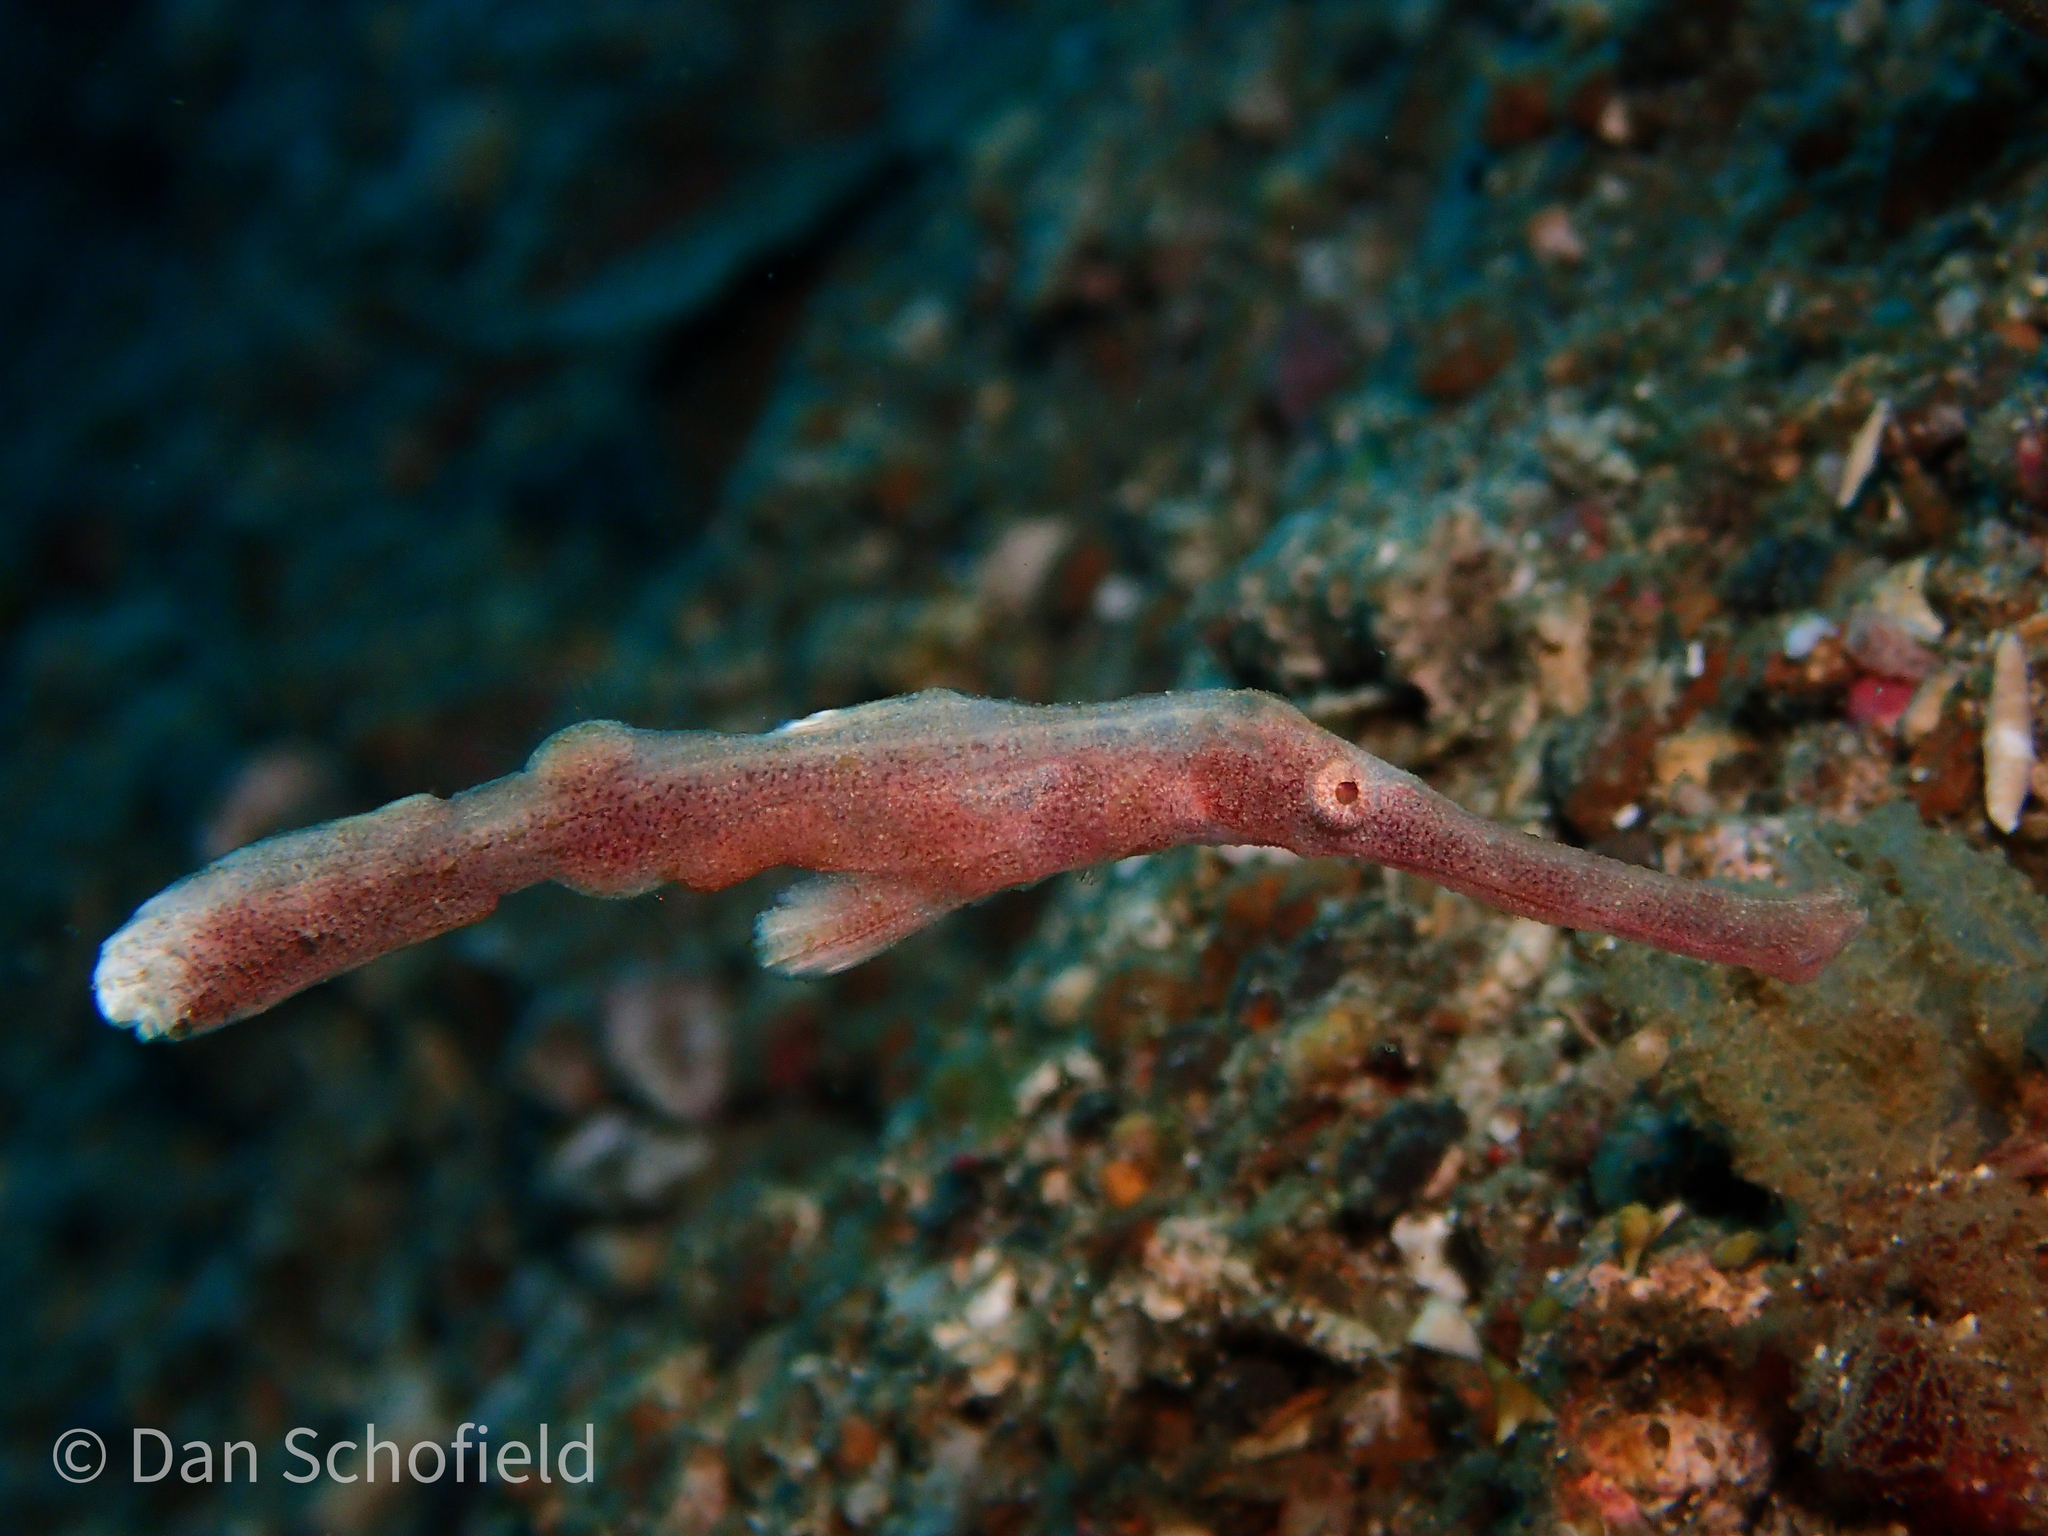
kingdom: Animalia
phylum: Chordata
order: Syngnathiformes
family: Solenostomidae
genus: Solenostomus
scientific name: Solenostomus halimeda
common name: Halimeda ghost pipefish
